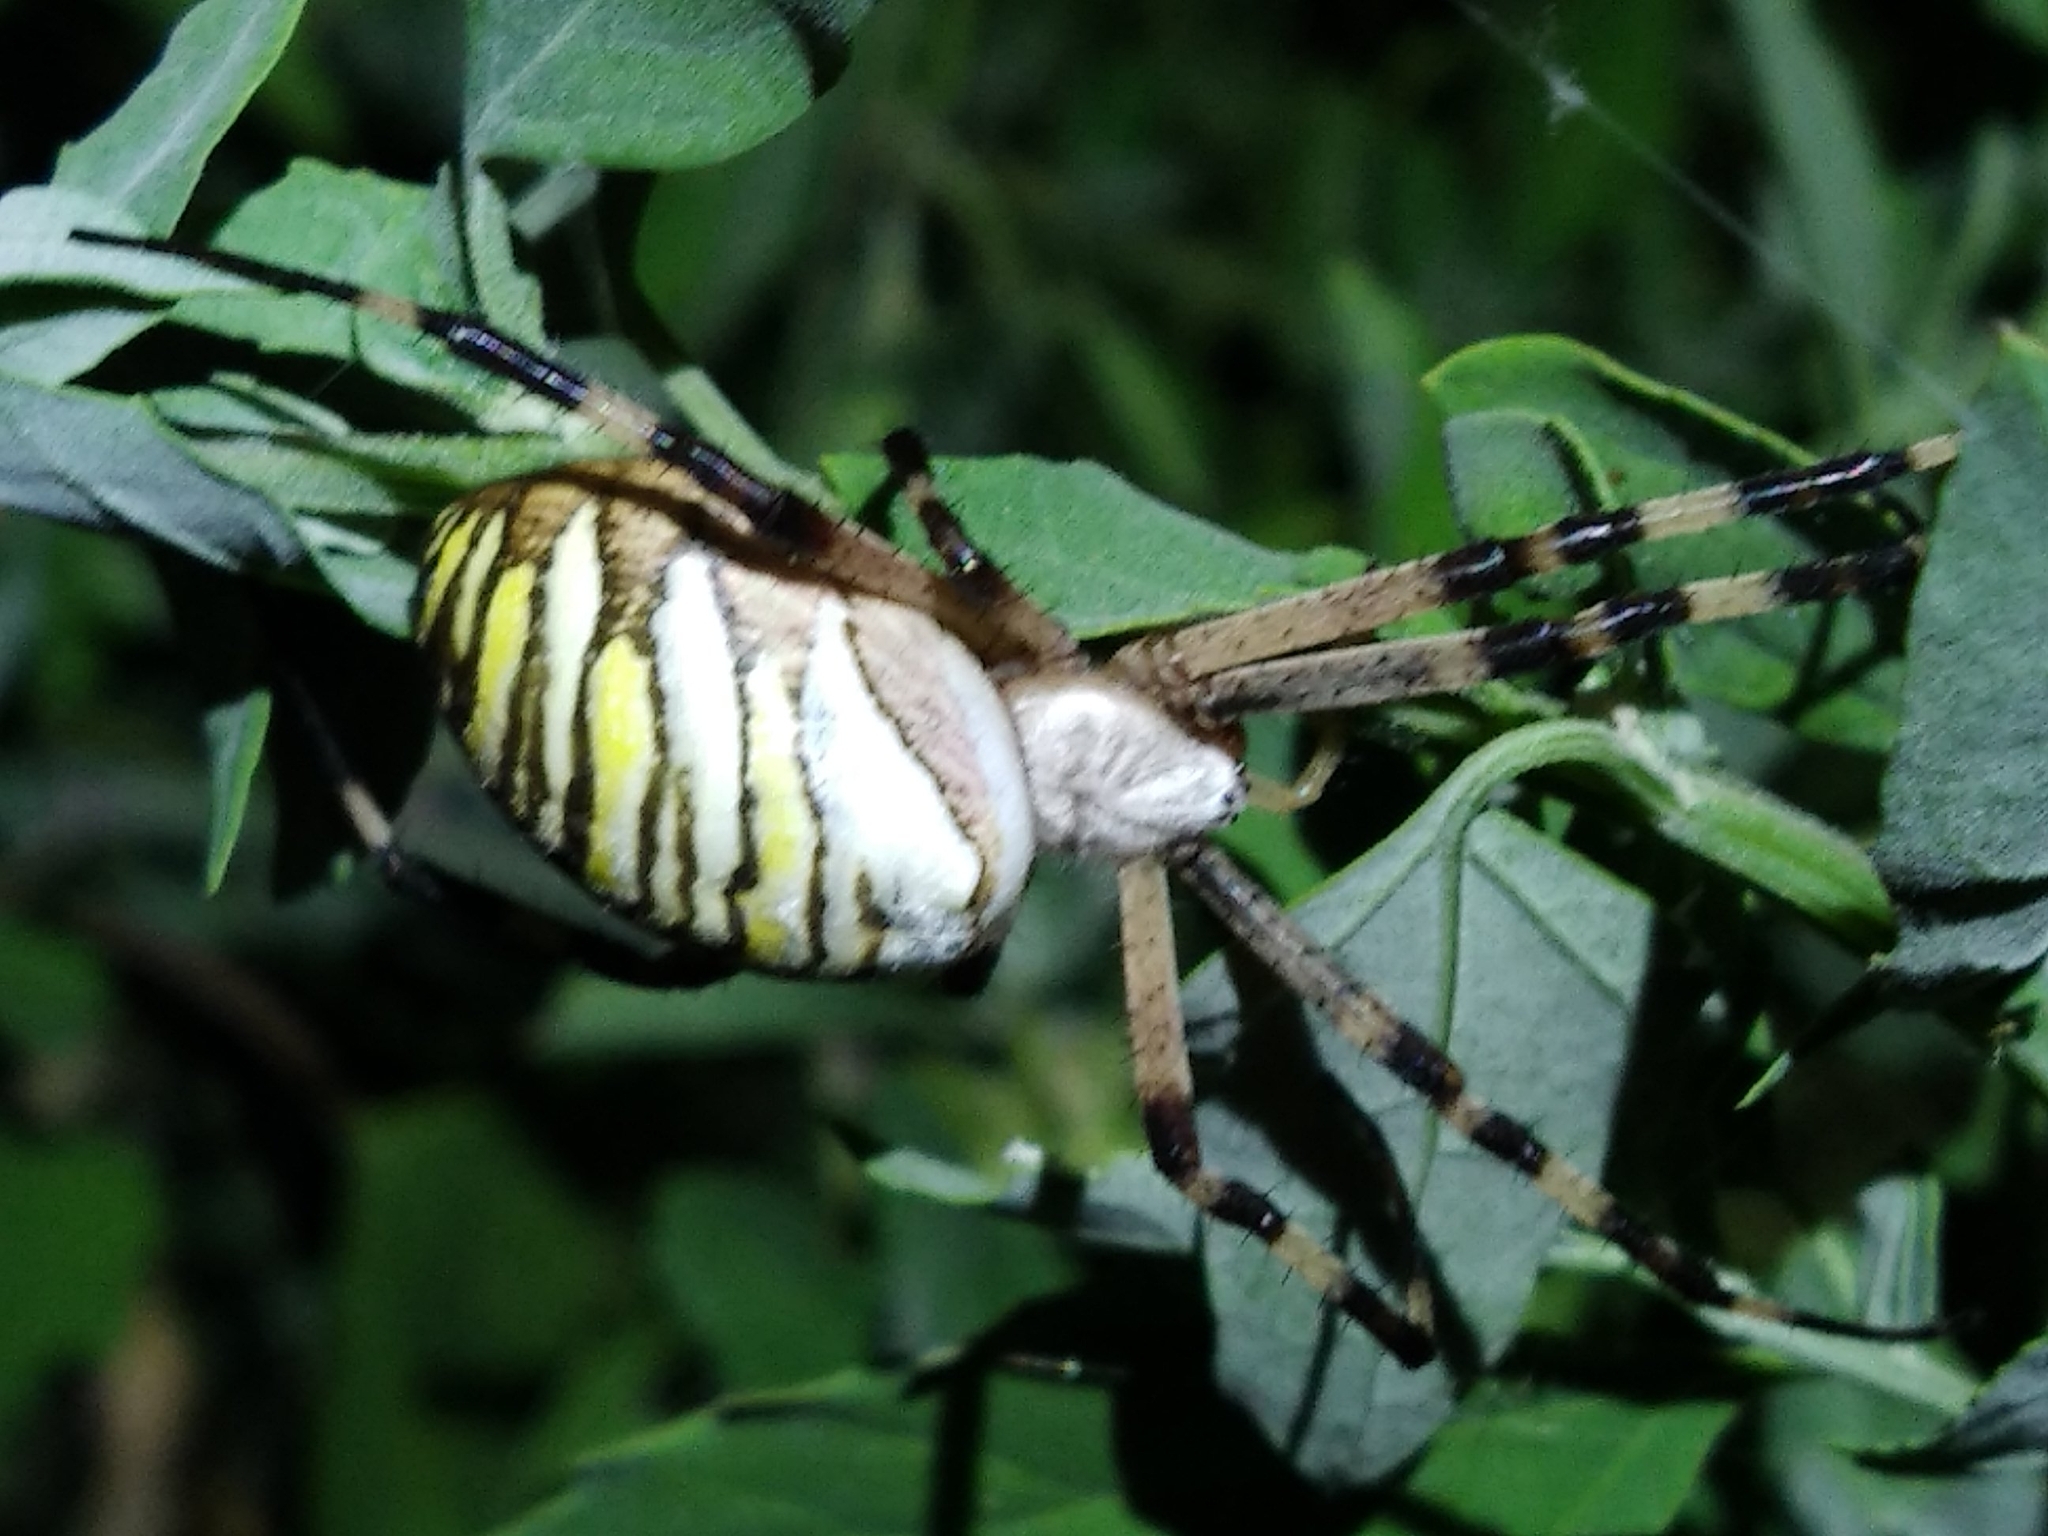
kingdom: Animalia
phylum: Arthropoda
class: Arachnida
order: Araneae
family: Araneidae
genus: Argiope
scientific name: Argiope bruennichi
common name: Wasp spider
